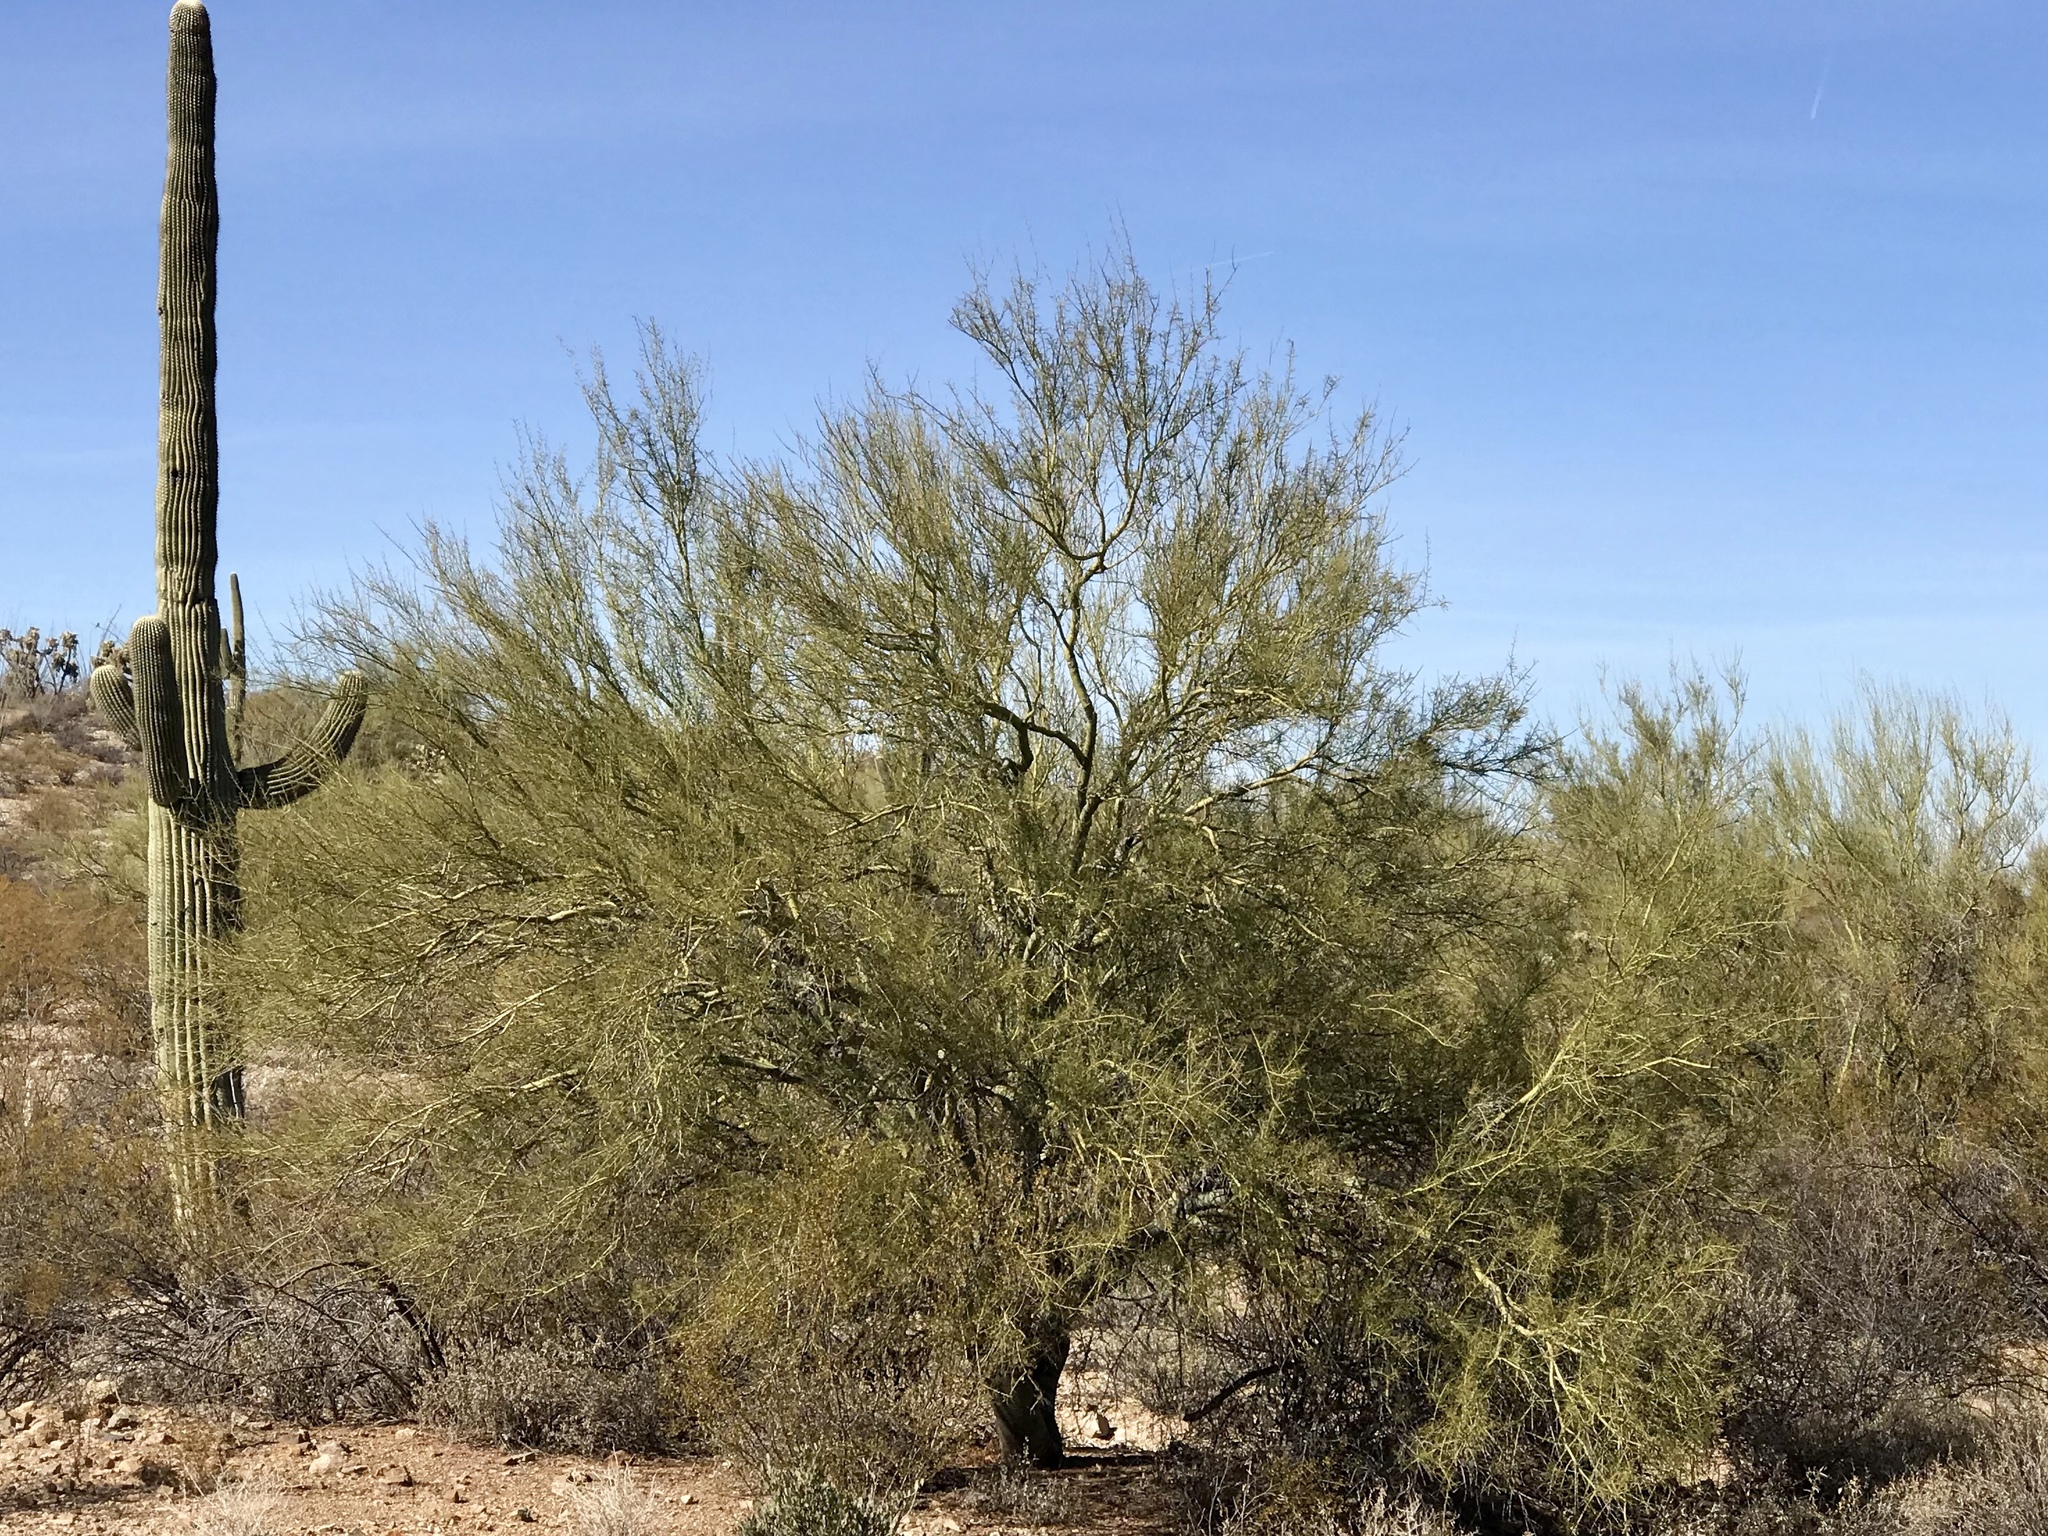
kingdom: Plantae
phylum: Tracheophyta
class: Magnoliopsida
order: Fabales
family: Fabaceae
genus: Parkinsonia
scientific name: Parkinsonia microphylla
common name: Yellow paloverde
